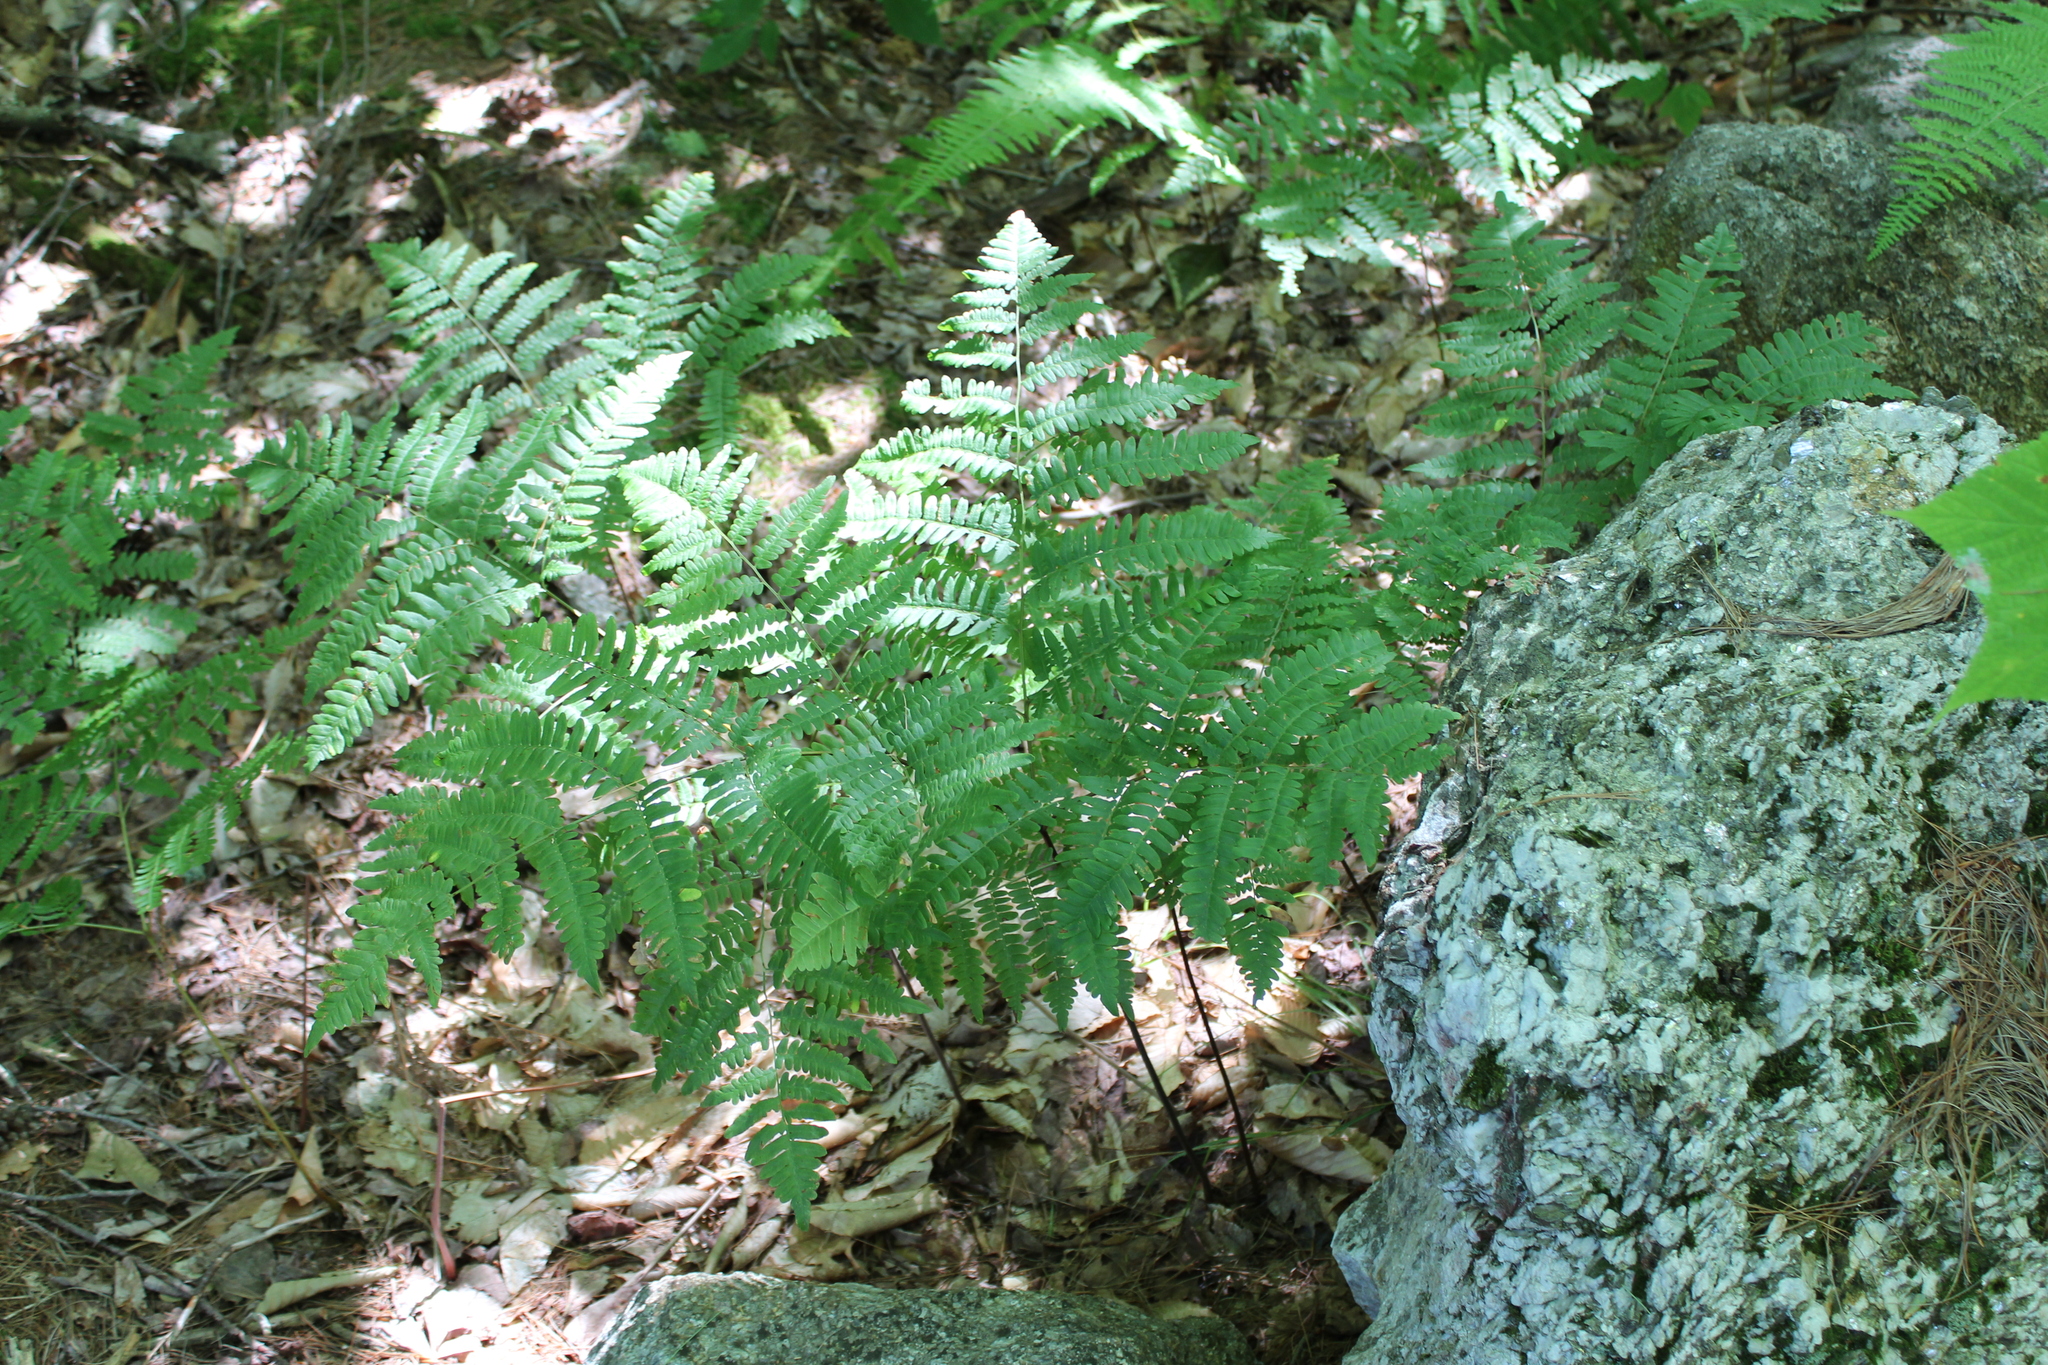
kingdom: Plantae
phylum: Tracheophyta
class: Polypodiopsida
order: Polypodiales
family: Dennstaedtiaceae
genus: Pteridium
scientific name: Pteridium aquilinum
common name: Bracken
